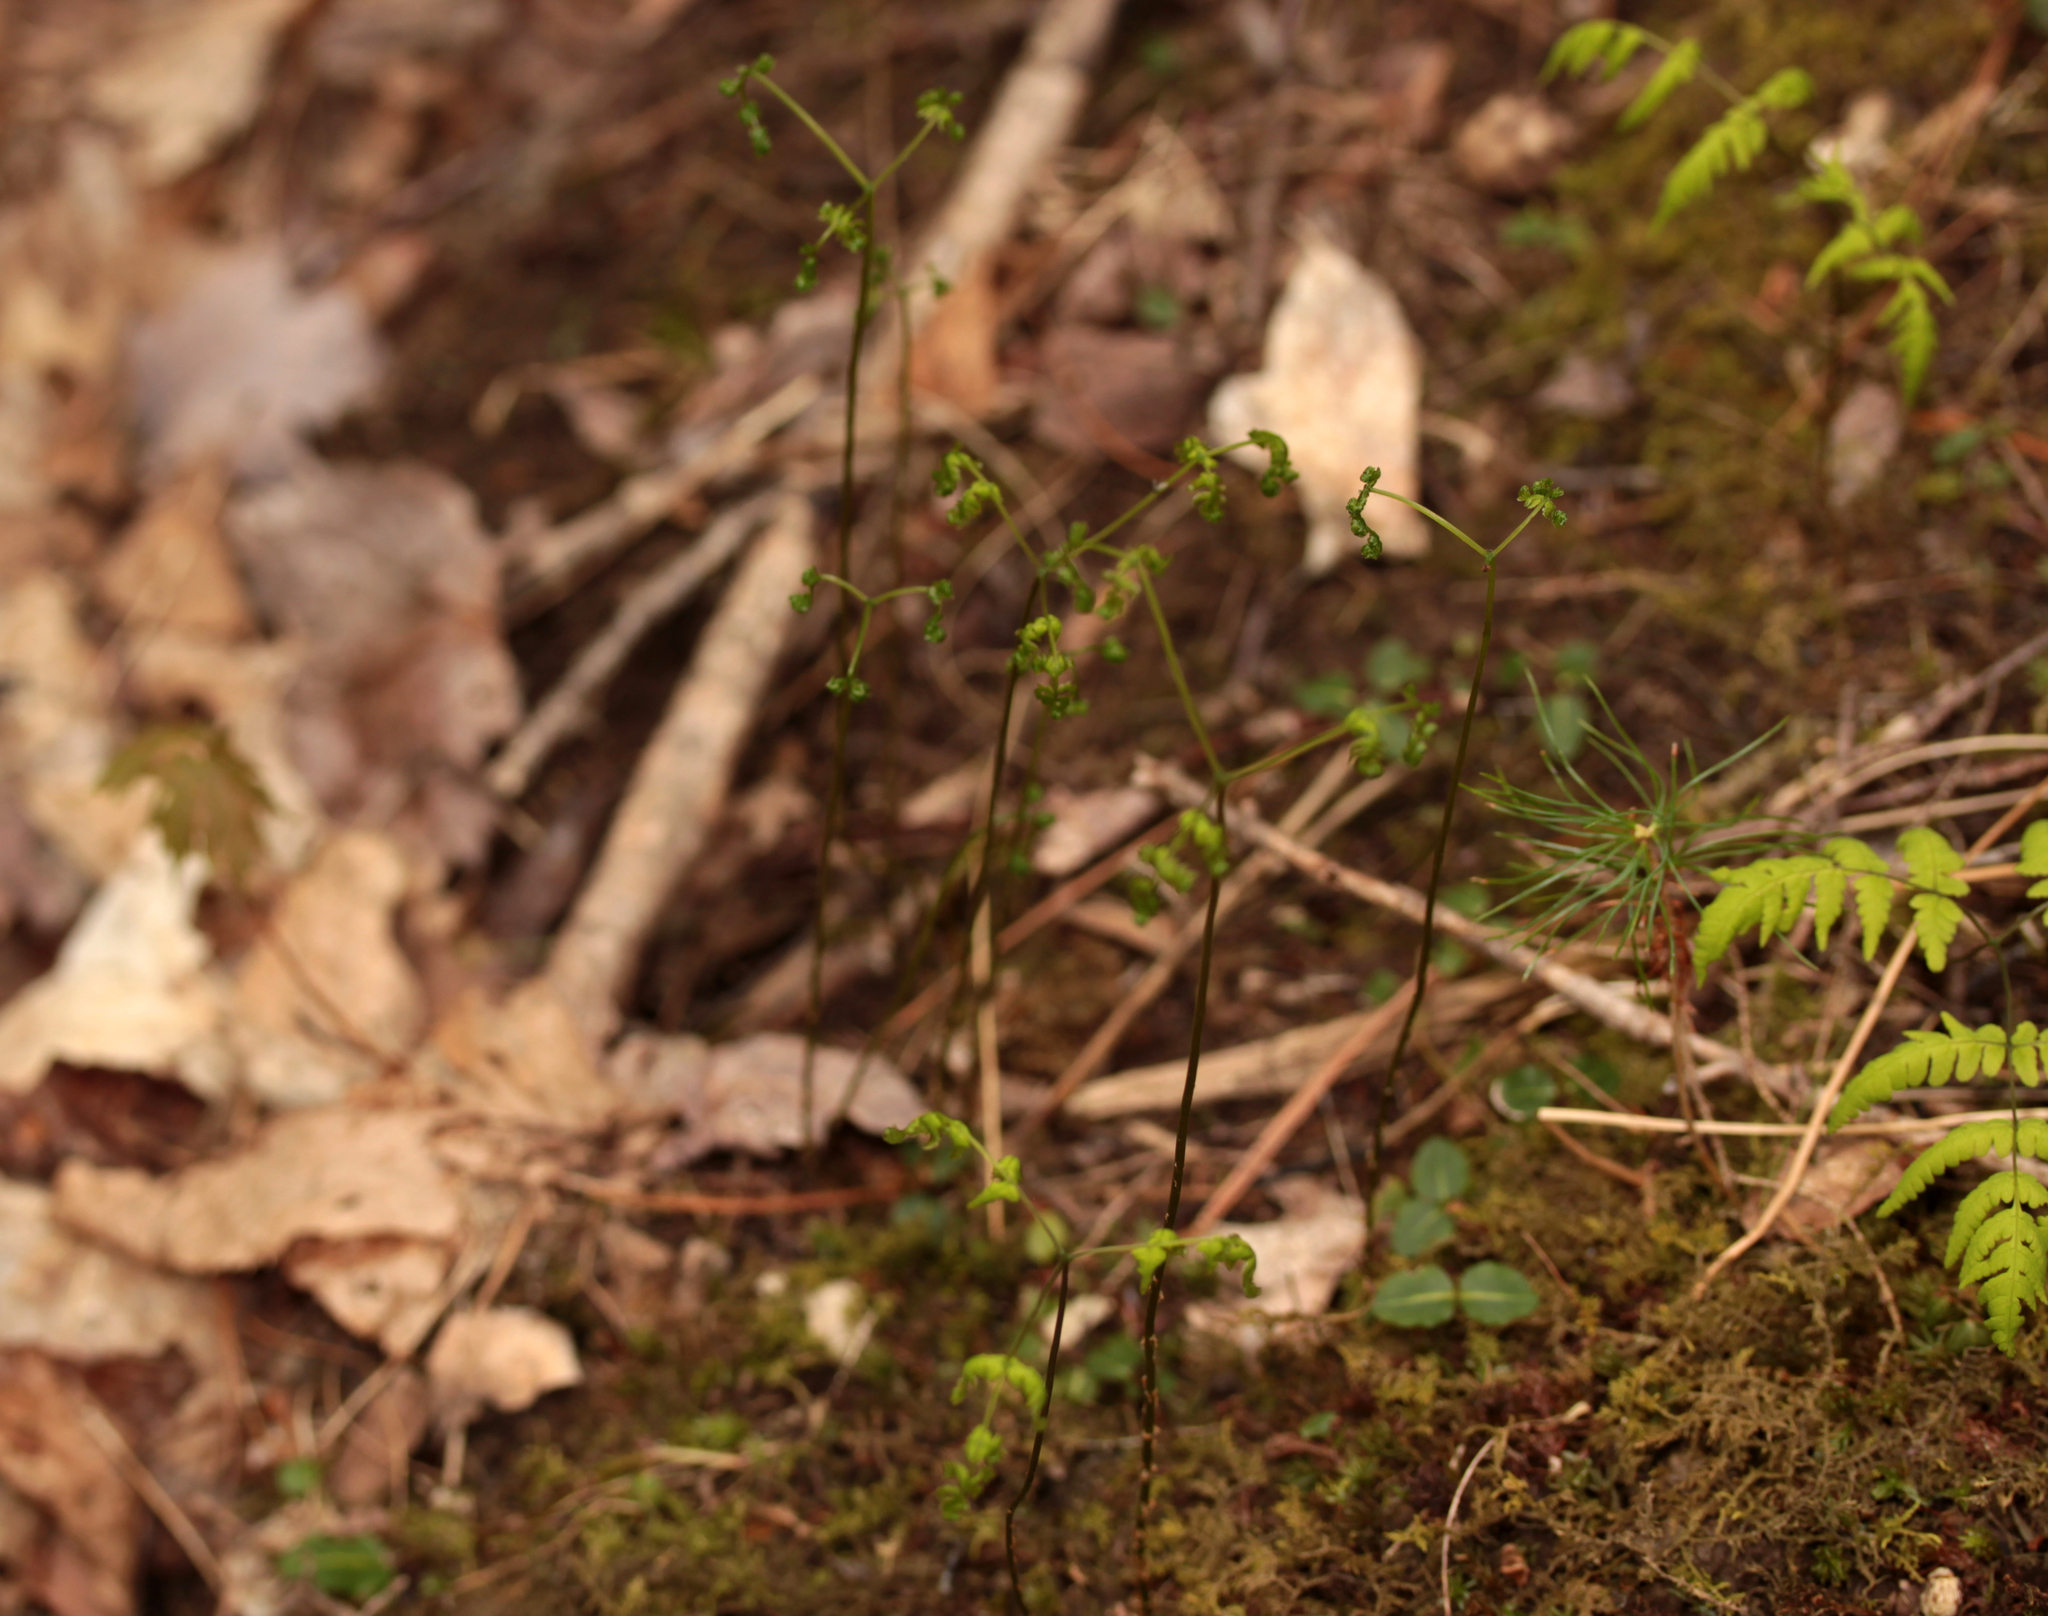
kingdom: Plantae
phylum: Tracheophyta
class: Polypodiopsida
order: Polypodiales
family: Cystopteridaceae
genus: Gymnocarpium
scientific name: Gymnocarpium dryopteris
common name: Oak fern
